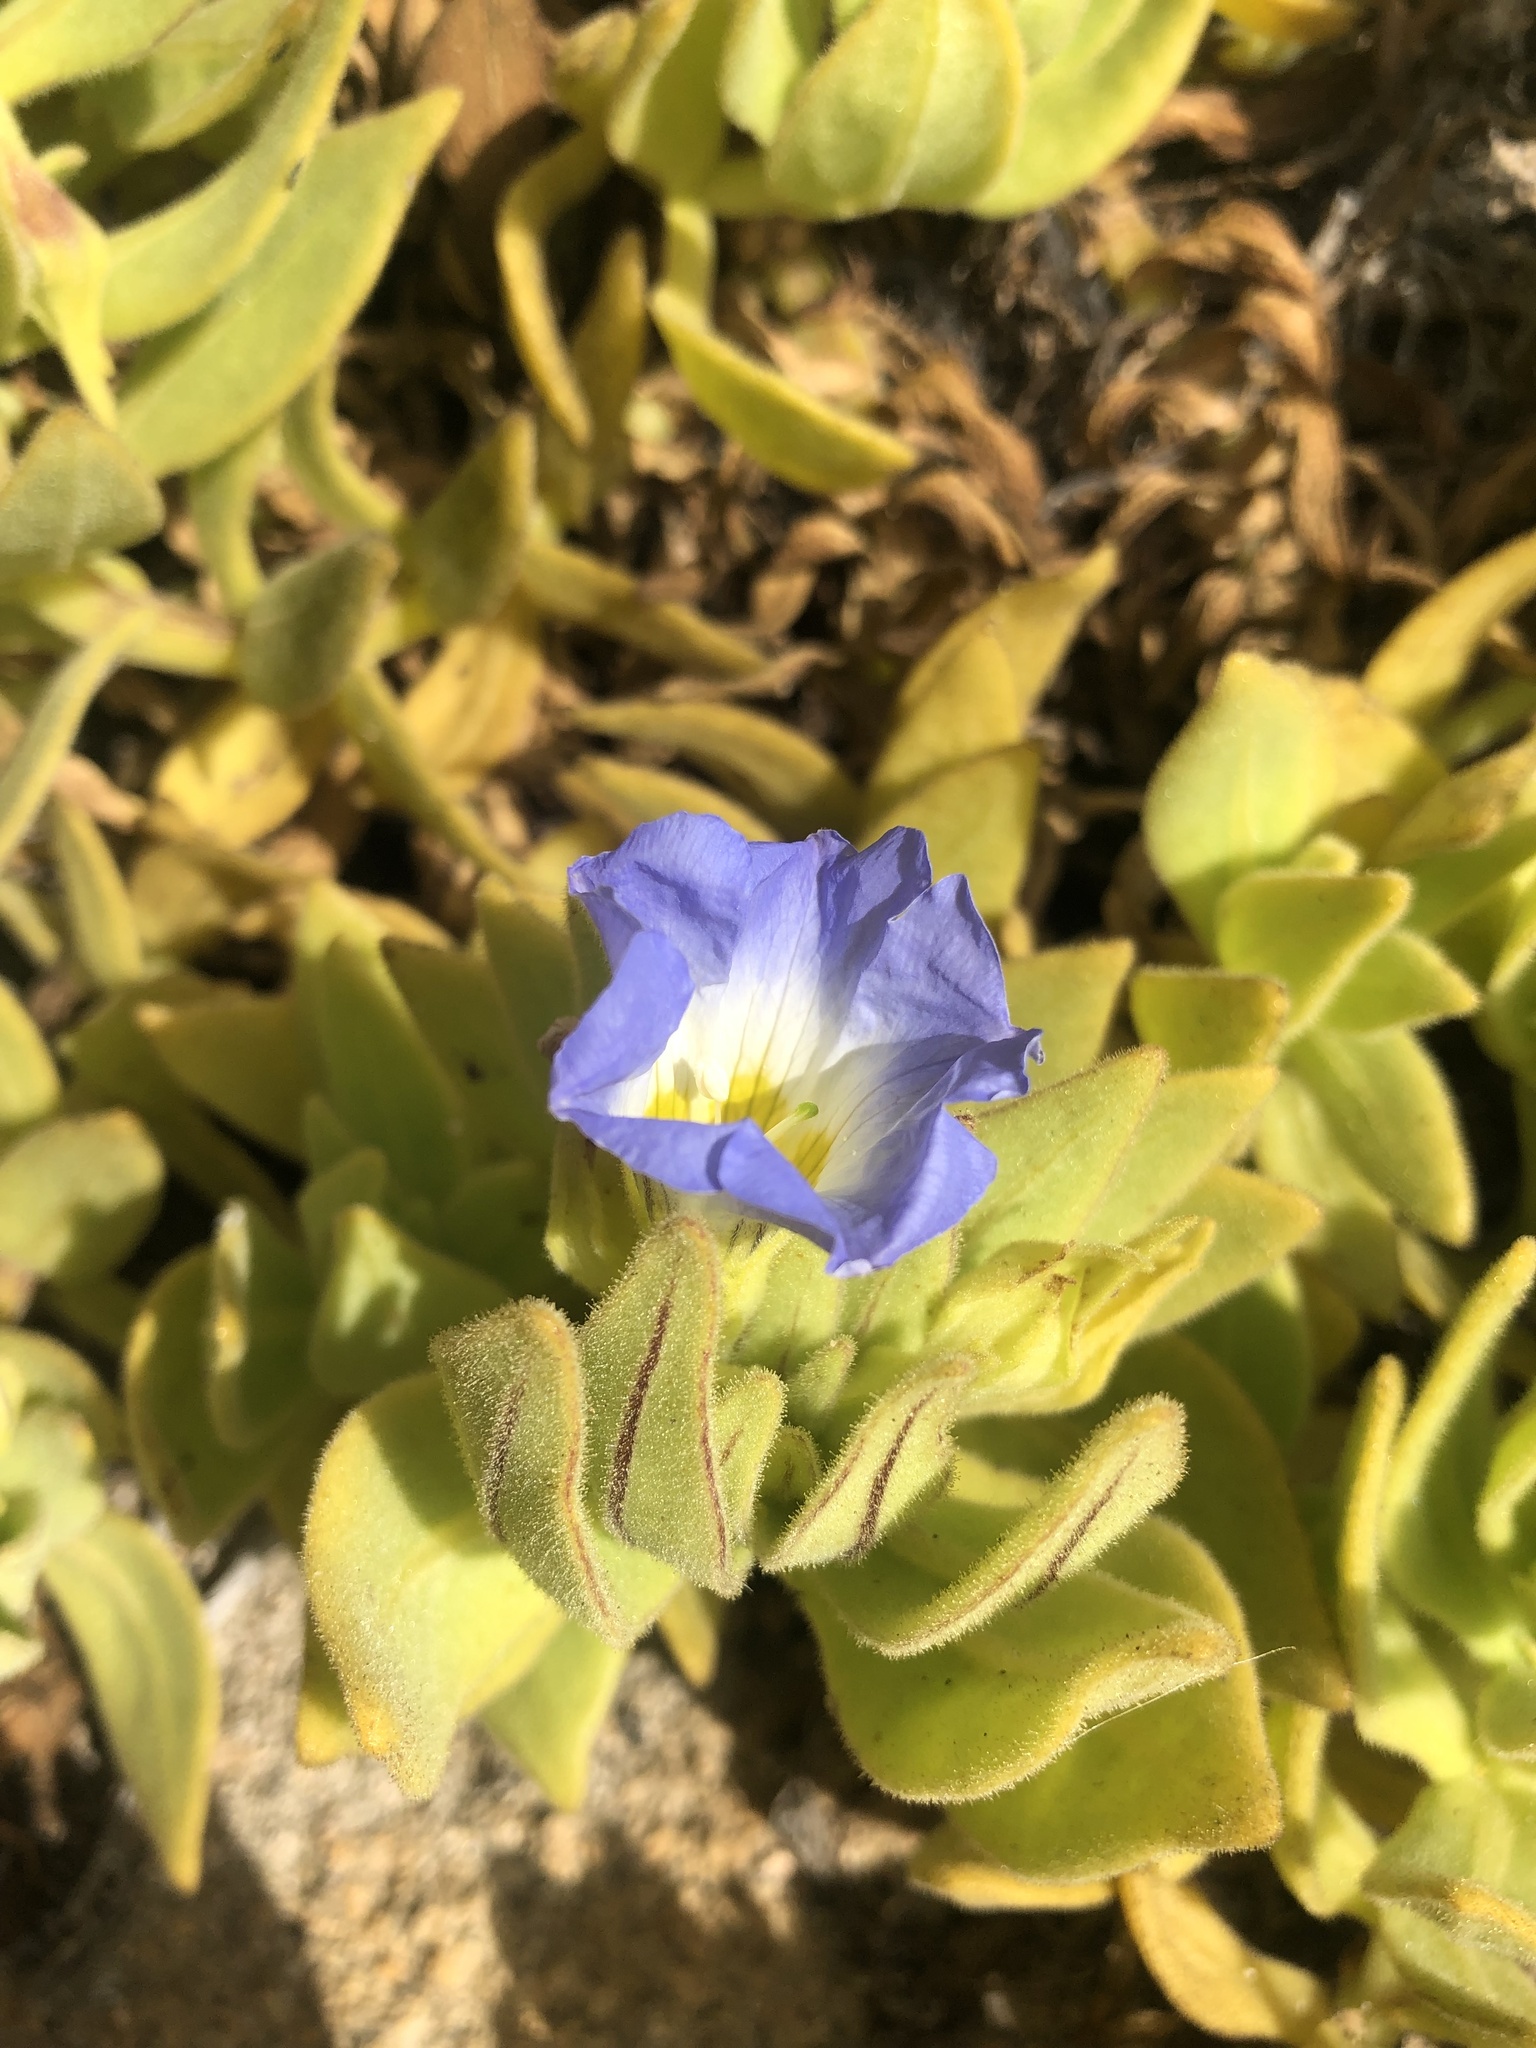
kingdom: Plantae
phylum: Tracheophyta
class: Magnoliopsida
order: Solanales
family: Solanaceae
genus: Nolana
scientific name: Nolana rupicola
